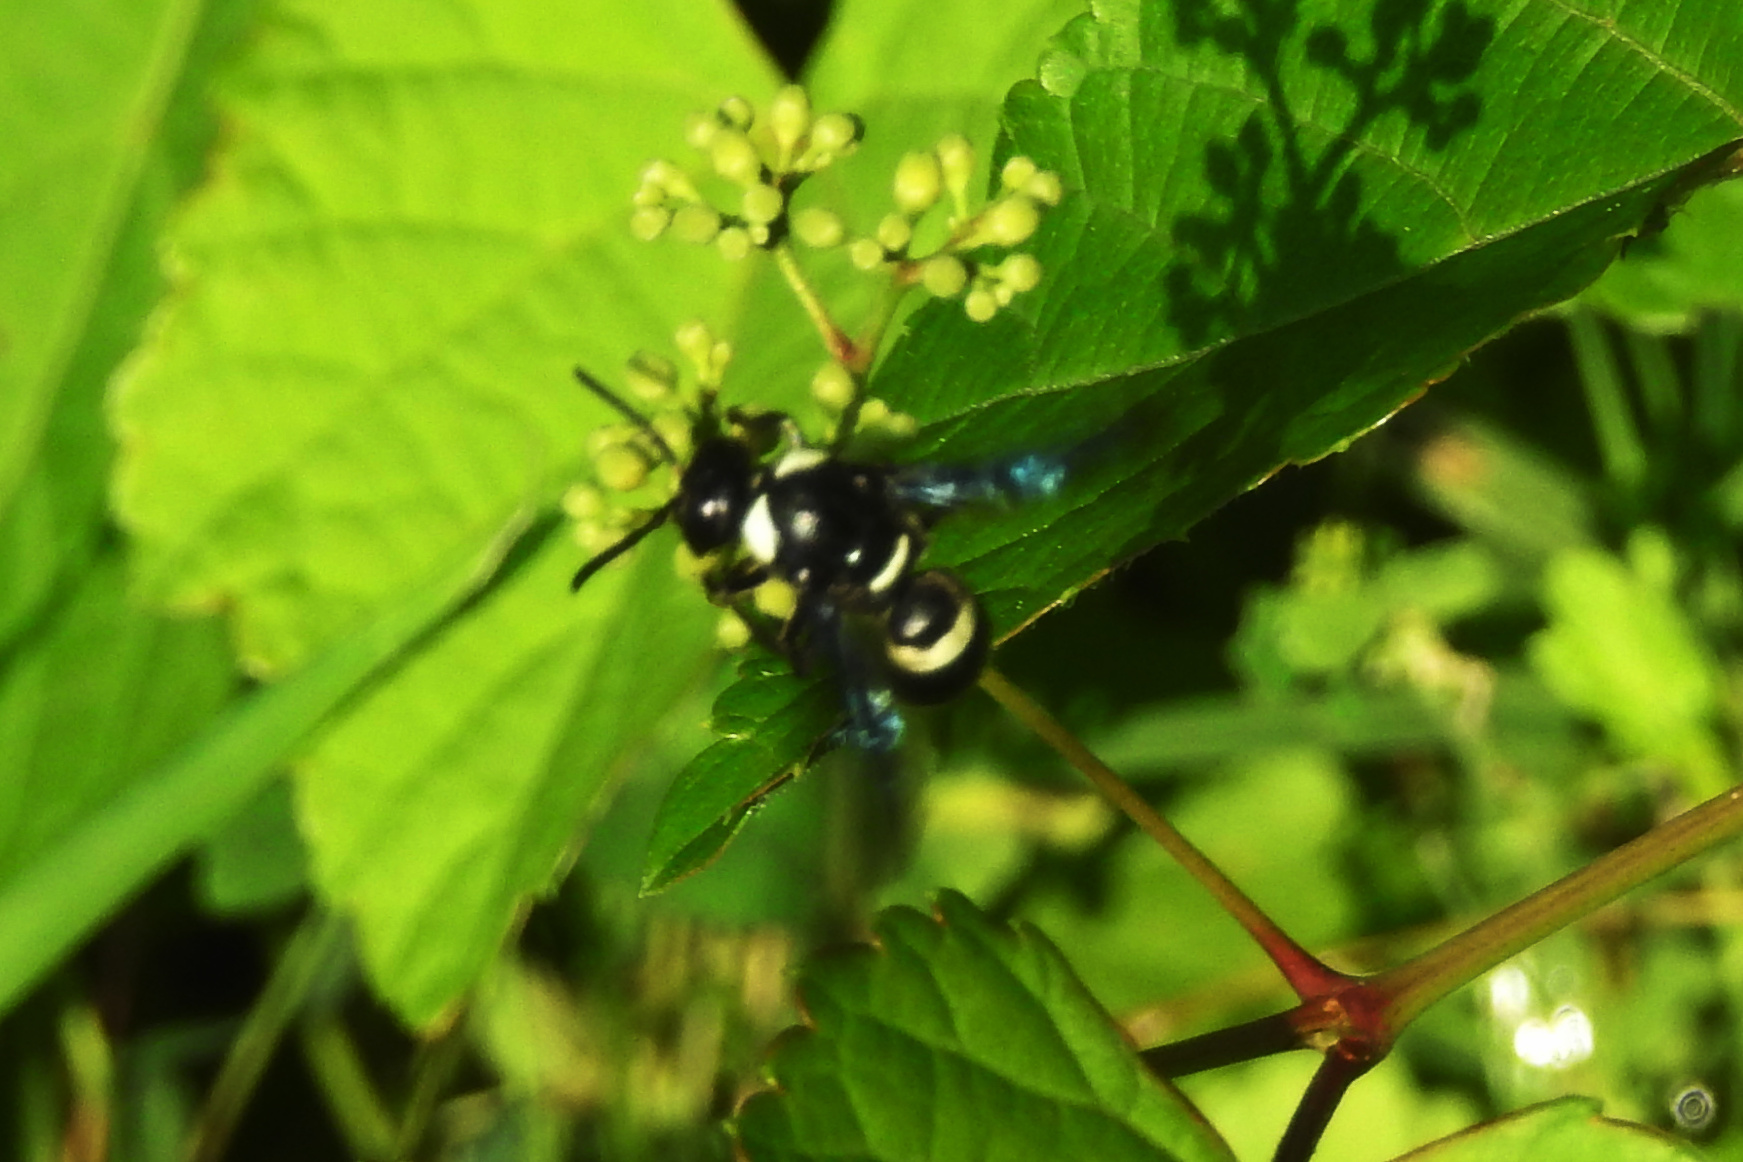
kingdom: Animalia
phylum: Arthropoda
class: Insecta
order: Hymenoptera
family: Eumenidae
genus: Monobia
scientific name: Monobia quadridens
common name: Four-toothed mason wasp
